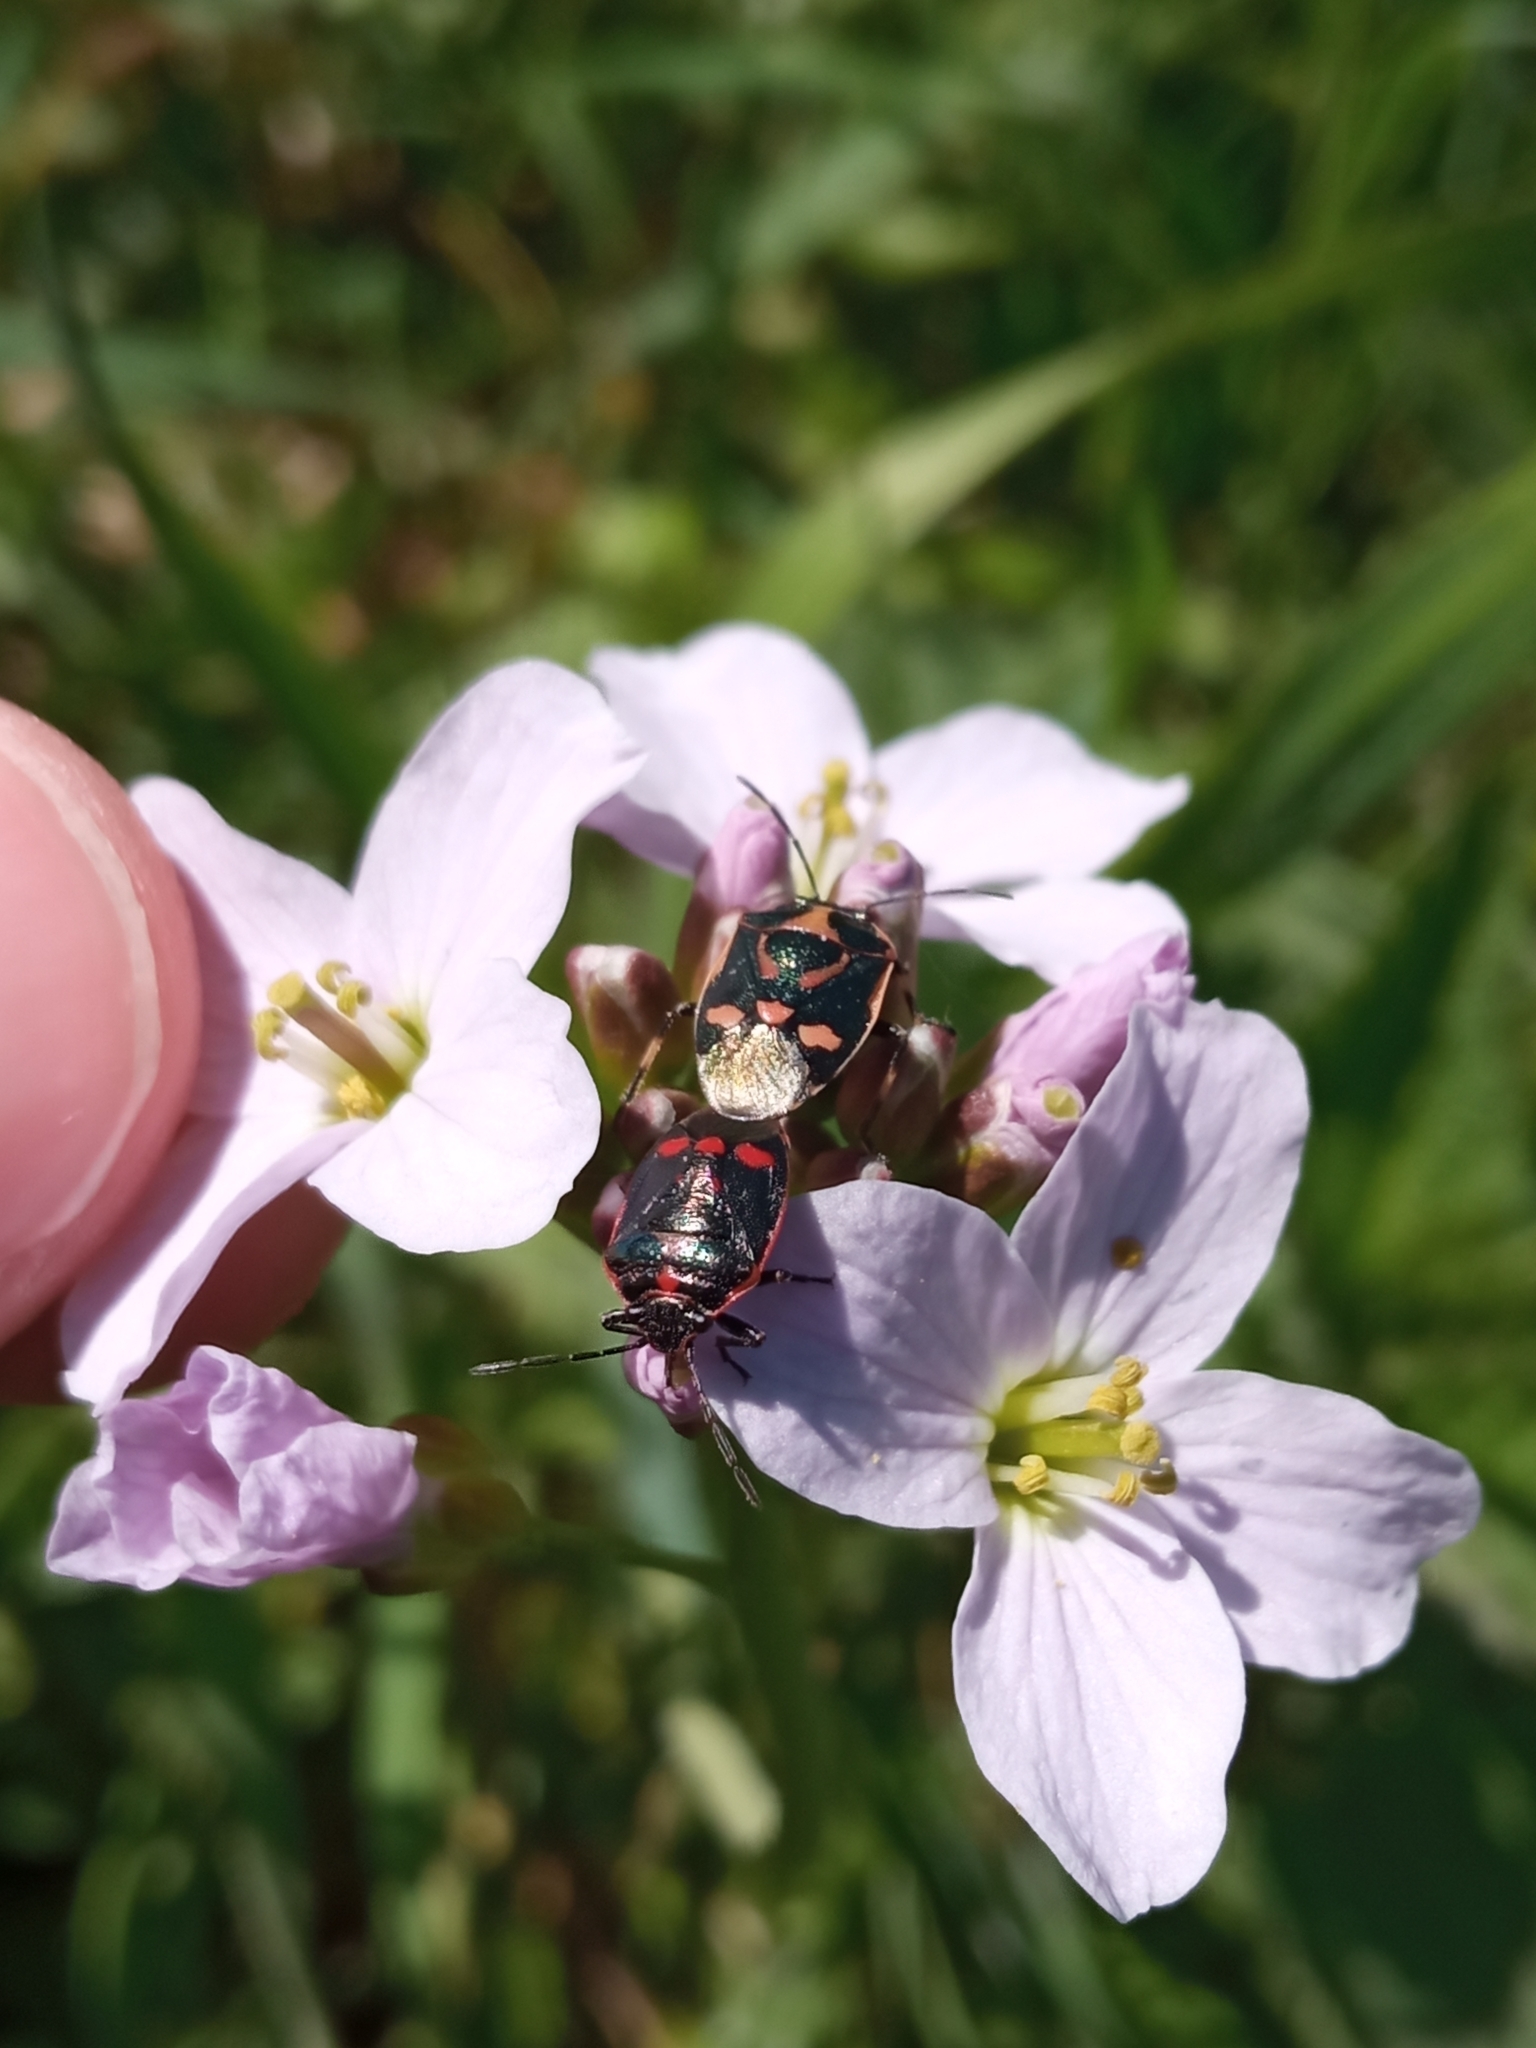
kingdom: Animalia
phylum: Arthropoda
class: Insecta
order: Hemiptera
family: Pentatomidae
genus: Eurydema
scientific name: Eurydema oleracea
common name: Cabbage bug
